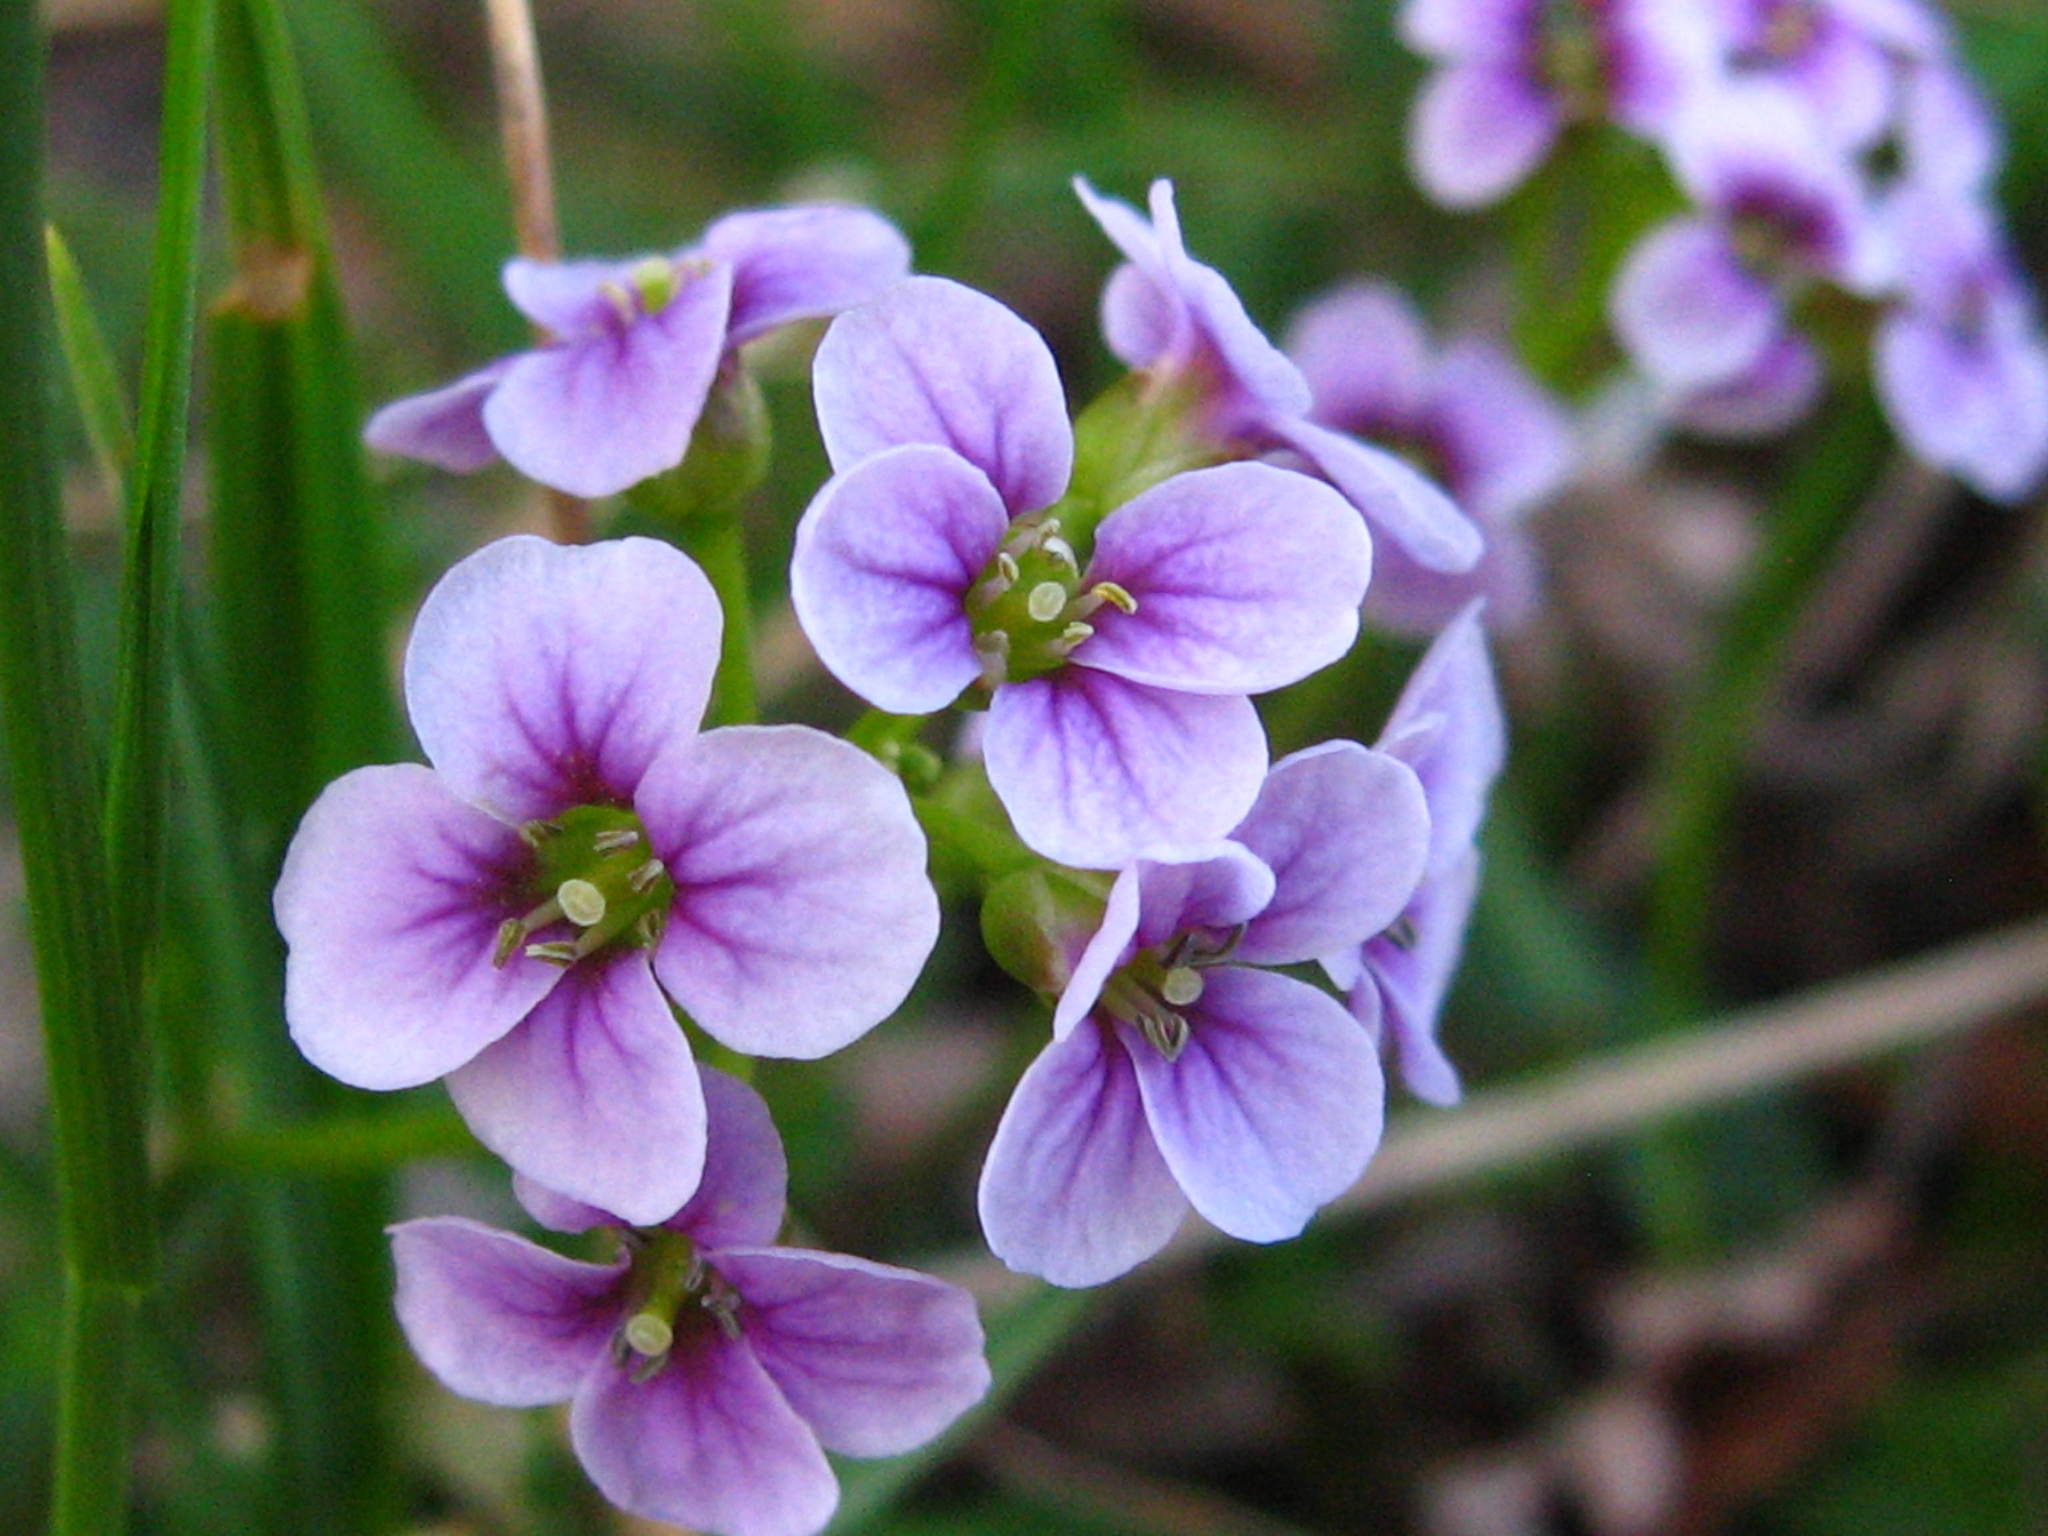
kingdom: Plantae
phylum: Tracheophyta
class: Magnoliopsida
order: Brassicales
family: Brassicaceae
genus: Cardamine
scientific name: Cardamine purpurea
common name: Purple bittercress
